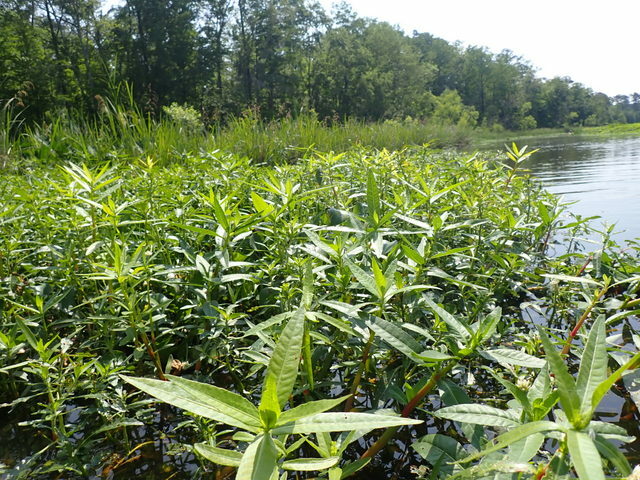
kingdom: Plantae
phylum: Tracheophyta
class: Magnoliopsida
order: Caryophyllales
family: Amaranthaceae
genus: Alternanthera
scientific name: Alternanthera philoxeroides
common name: Alligatorweed
